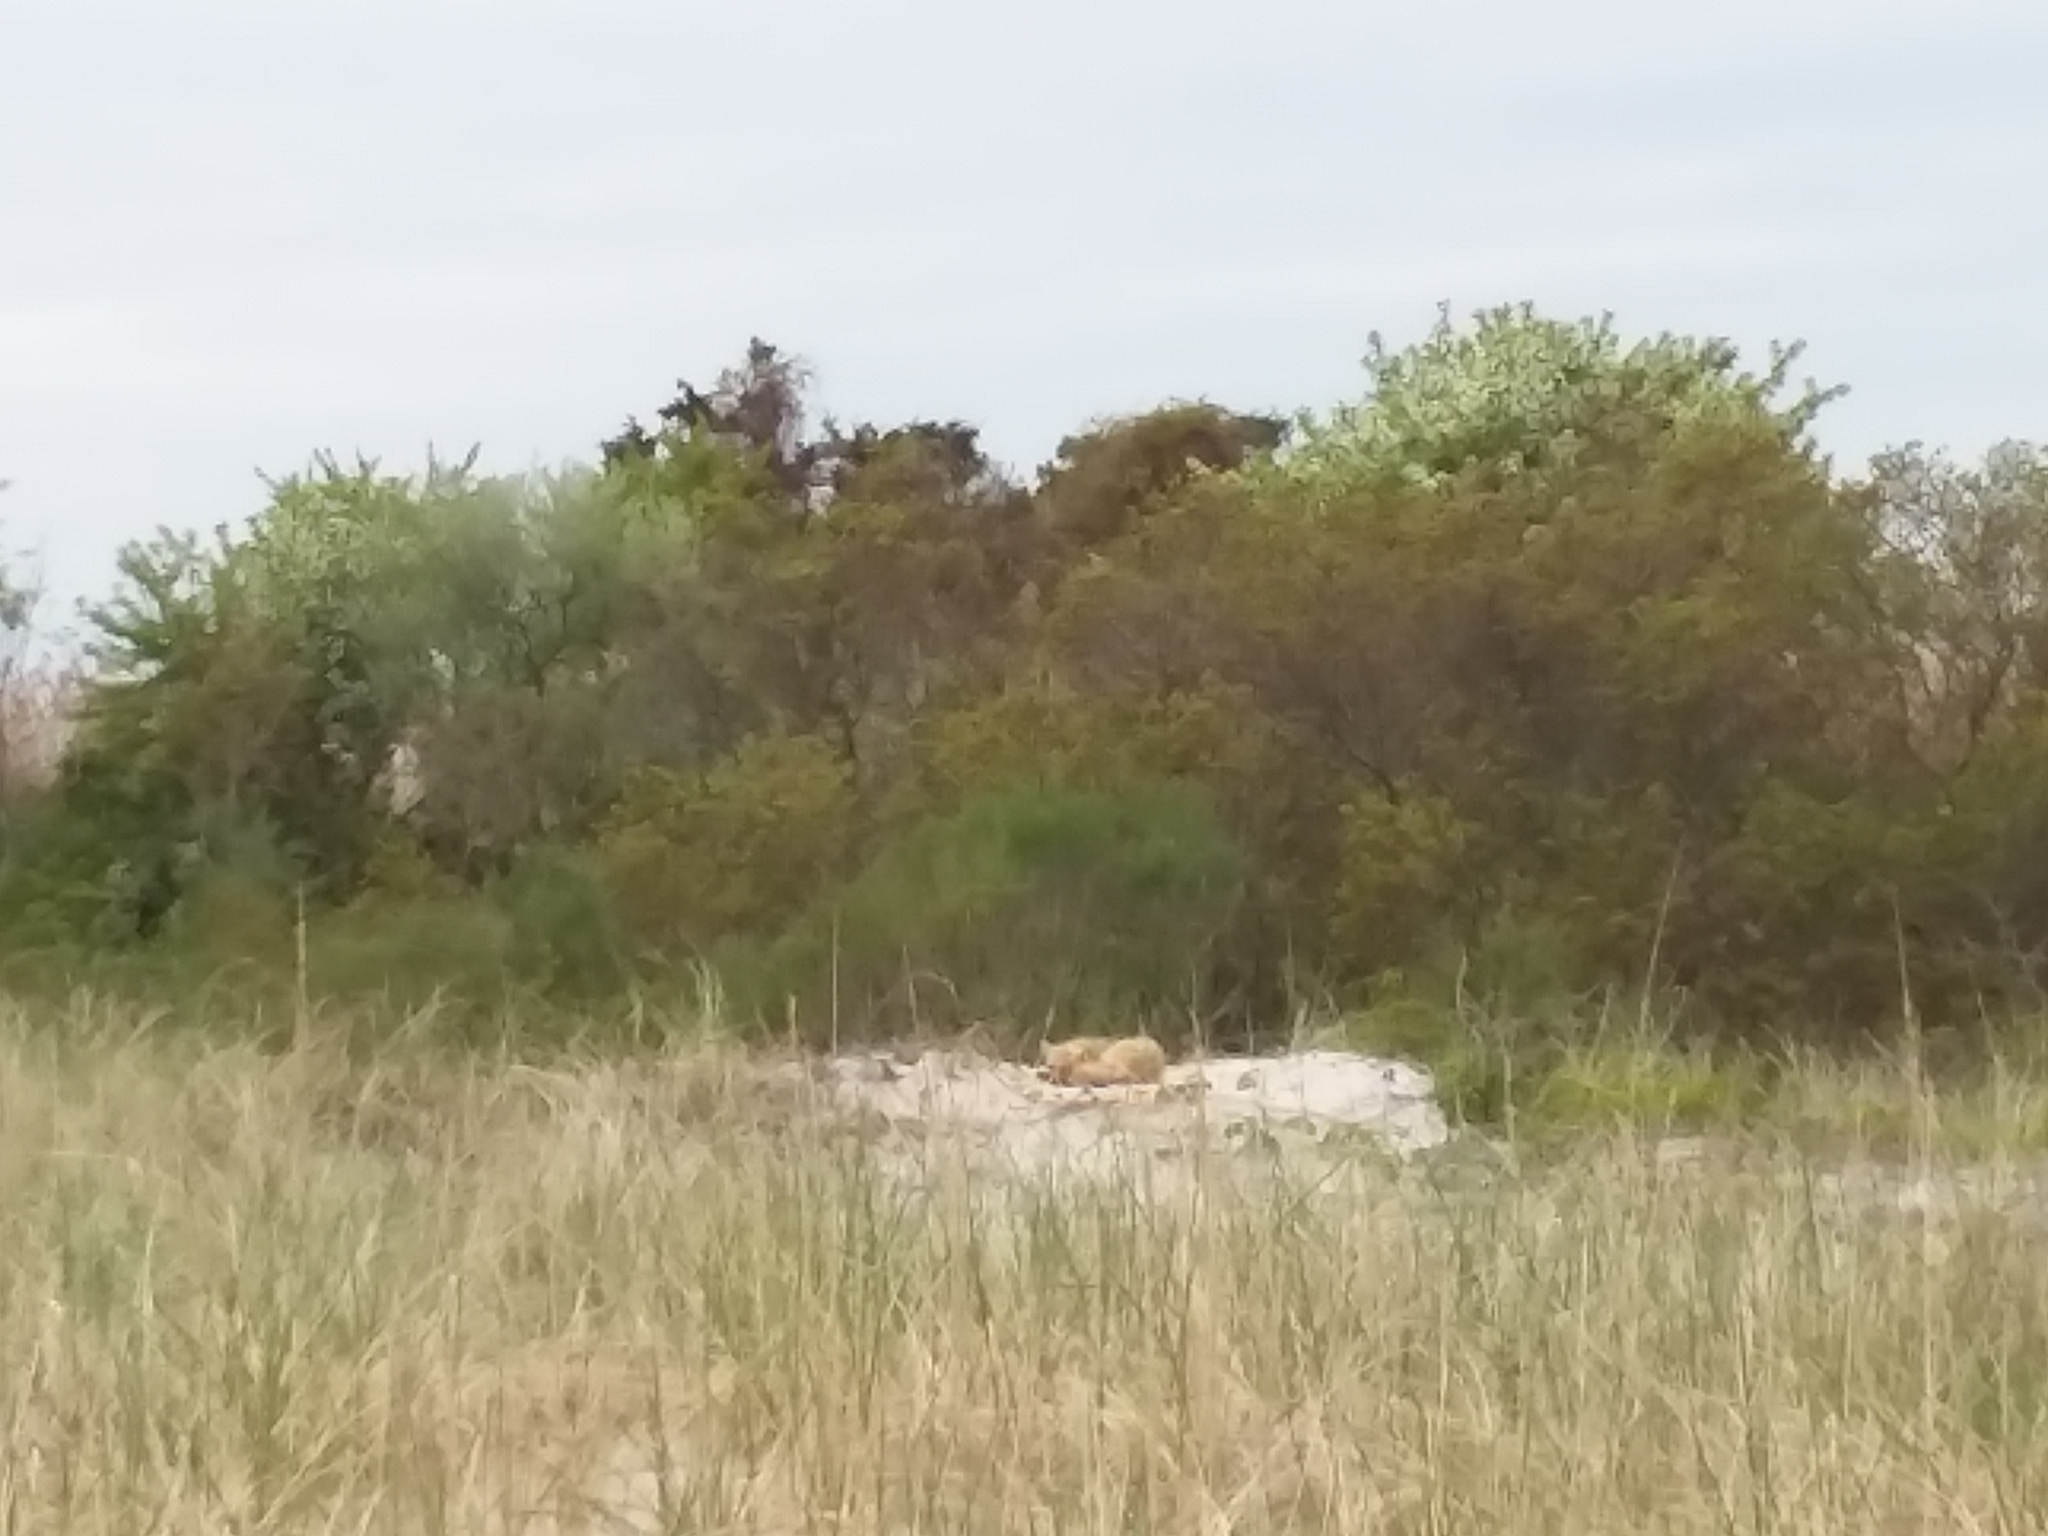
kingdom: Animalia
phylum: Chordata
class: Mammalia
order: Carnivora
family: Canidae
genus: Vulpes
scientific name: Vulpes vulpes
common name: Red fox
